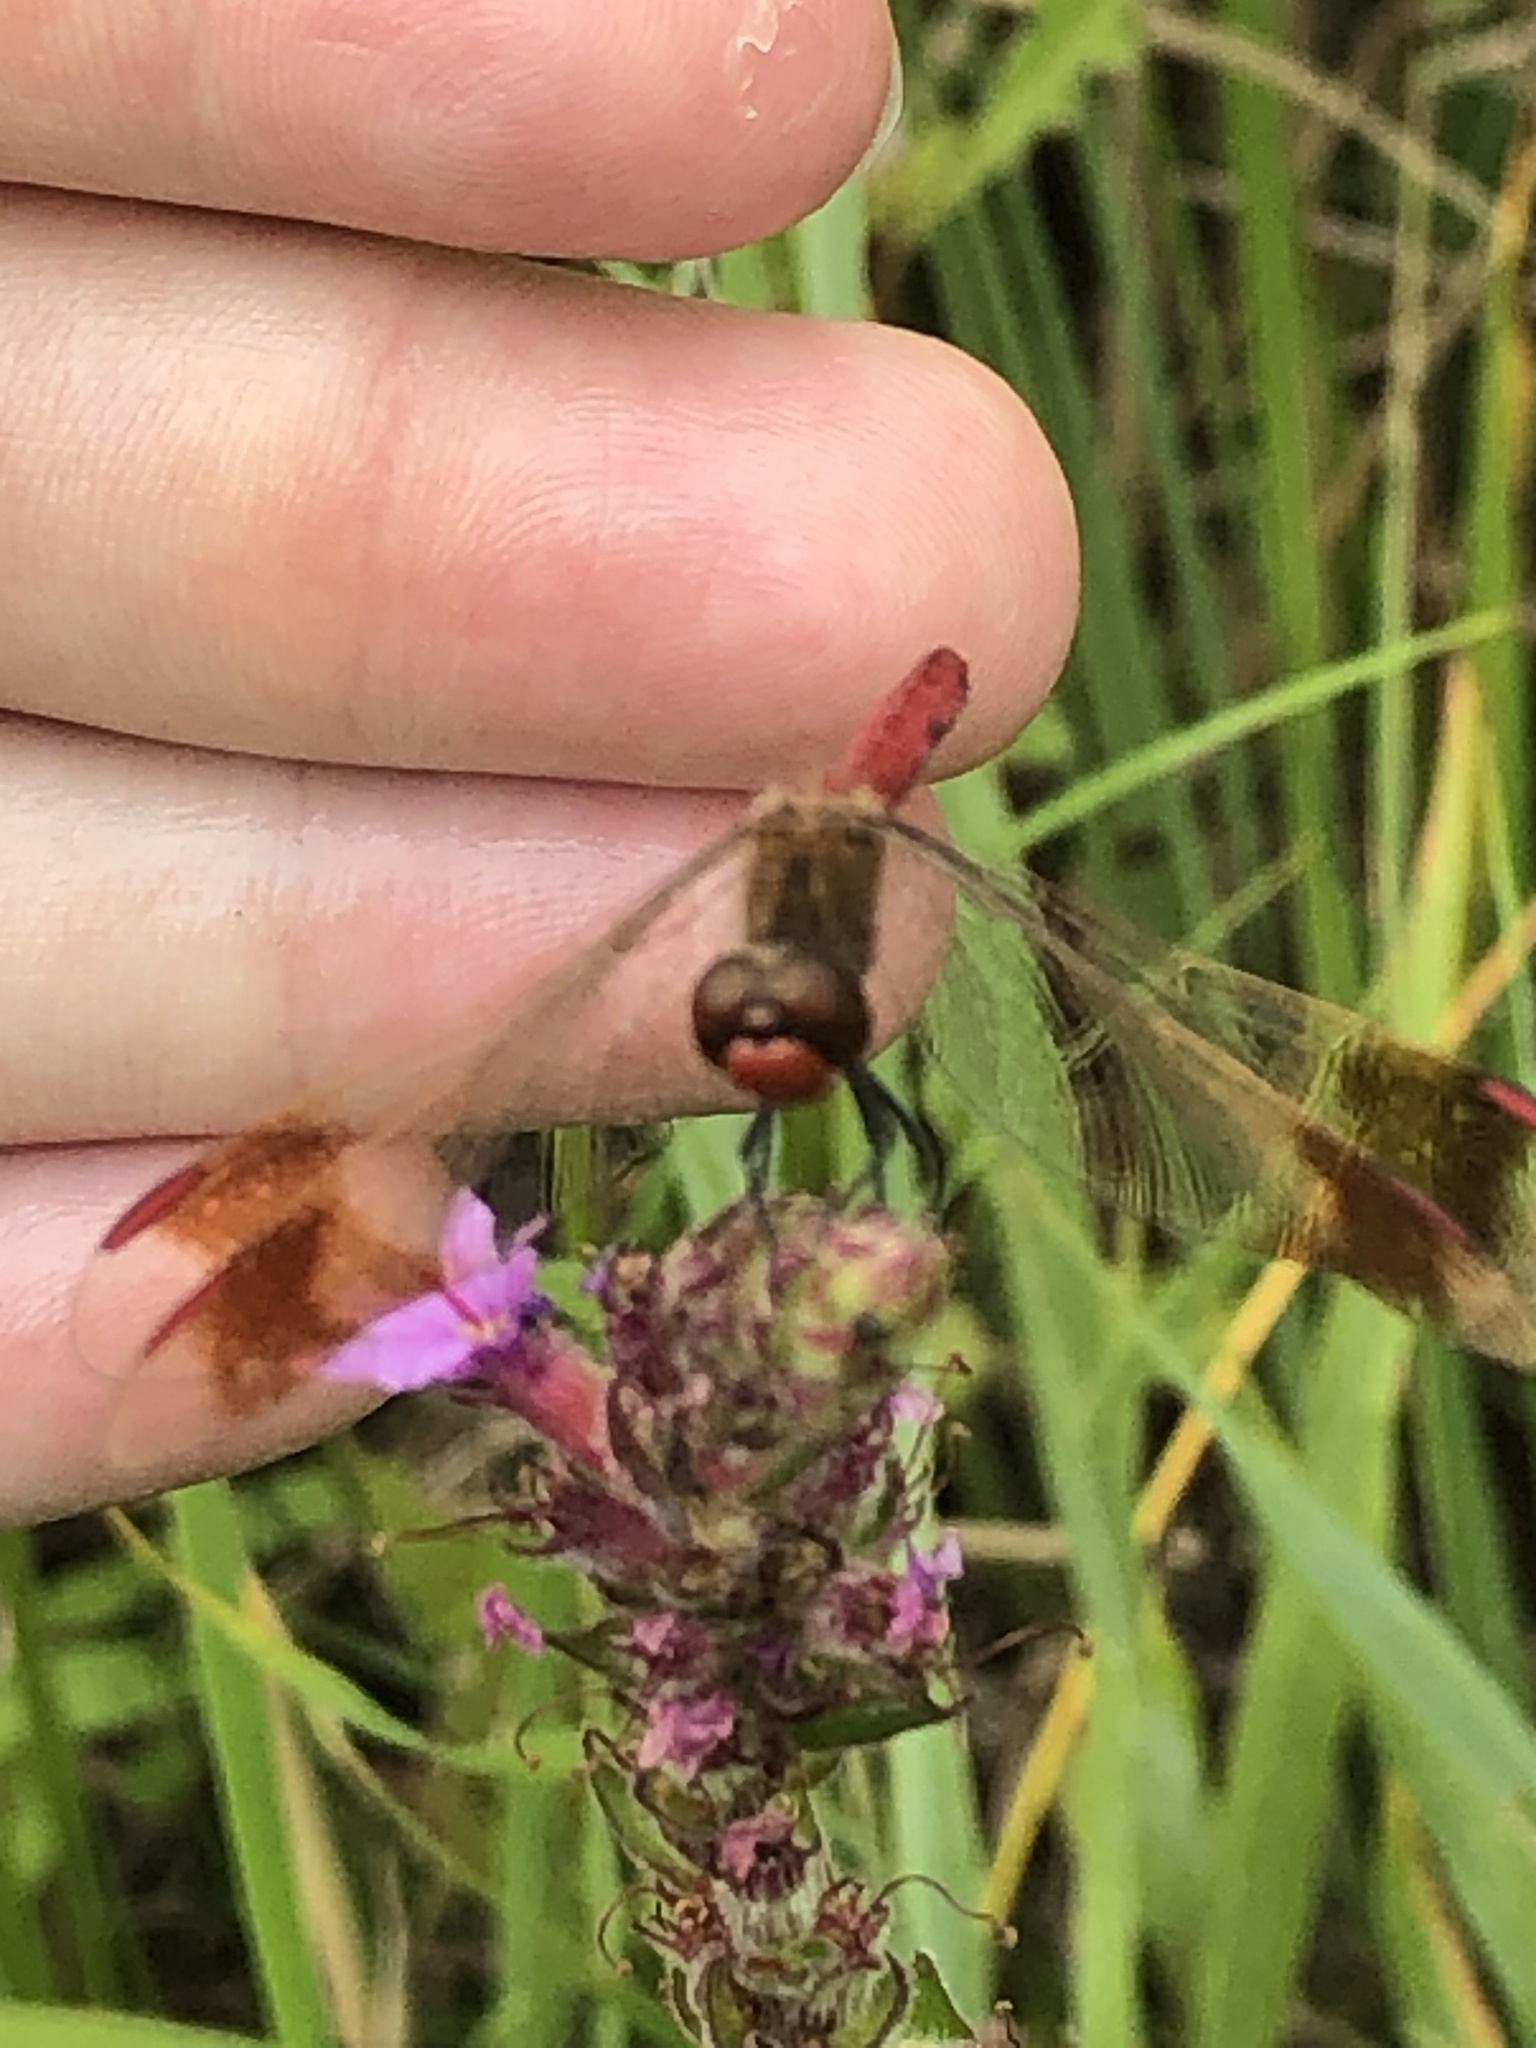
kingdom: Animalia
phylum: Arthropoda
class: Insecta
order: Odonata
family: Libellulidae
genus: Sympetrum
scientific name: Sympetrum pedemontanum
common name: Banded darter
